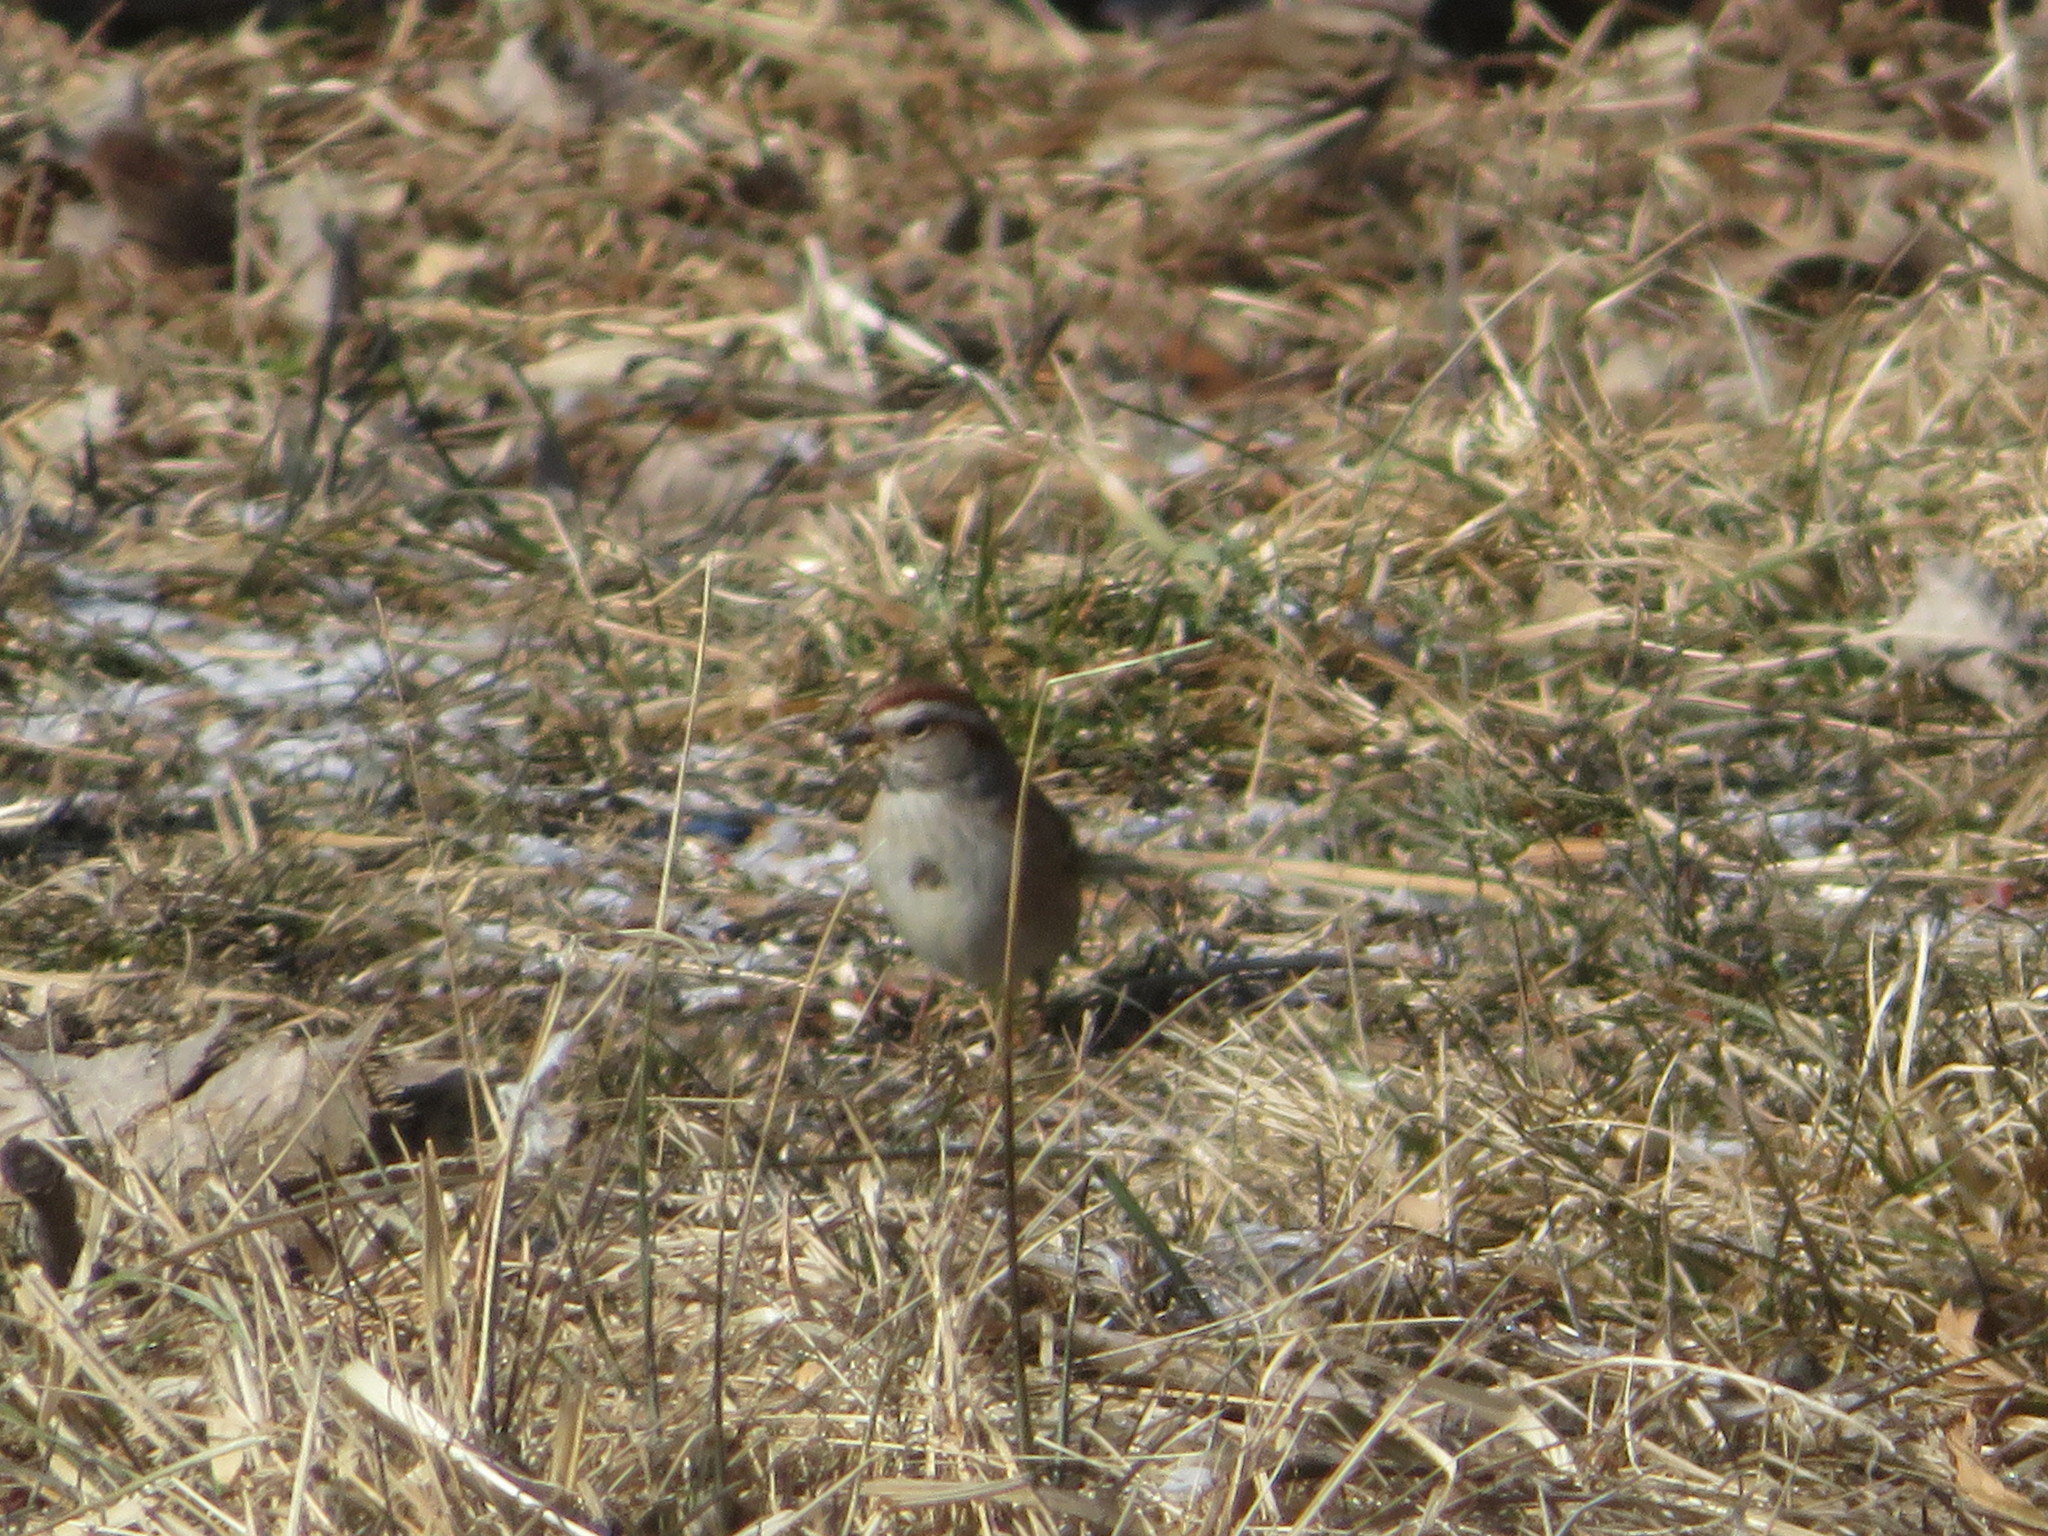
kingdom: Animalia
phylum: Chordata
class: Aves
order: Passeriformes
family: Passerellidae
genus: Spizelloides
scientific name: Spizelloides arborea
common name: American tree sparrow
